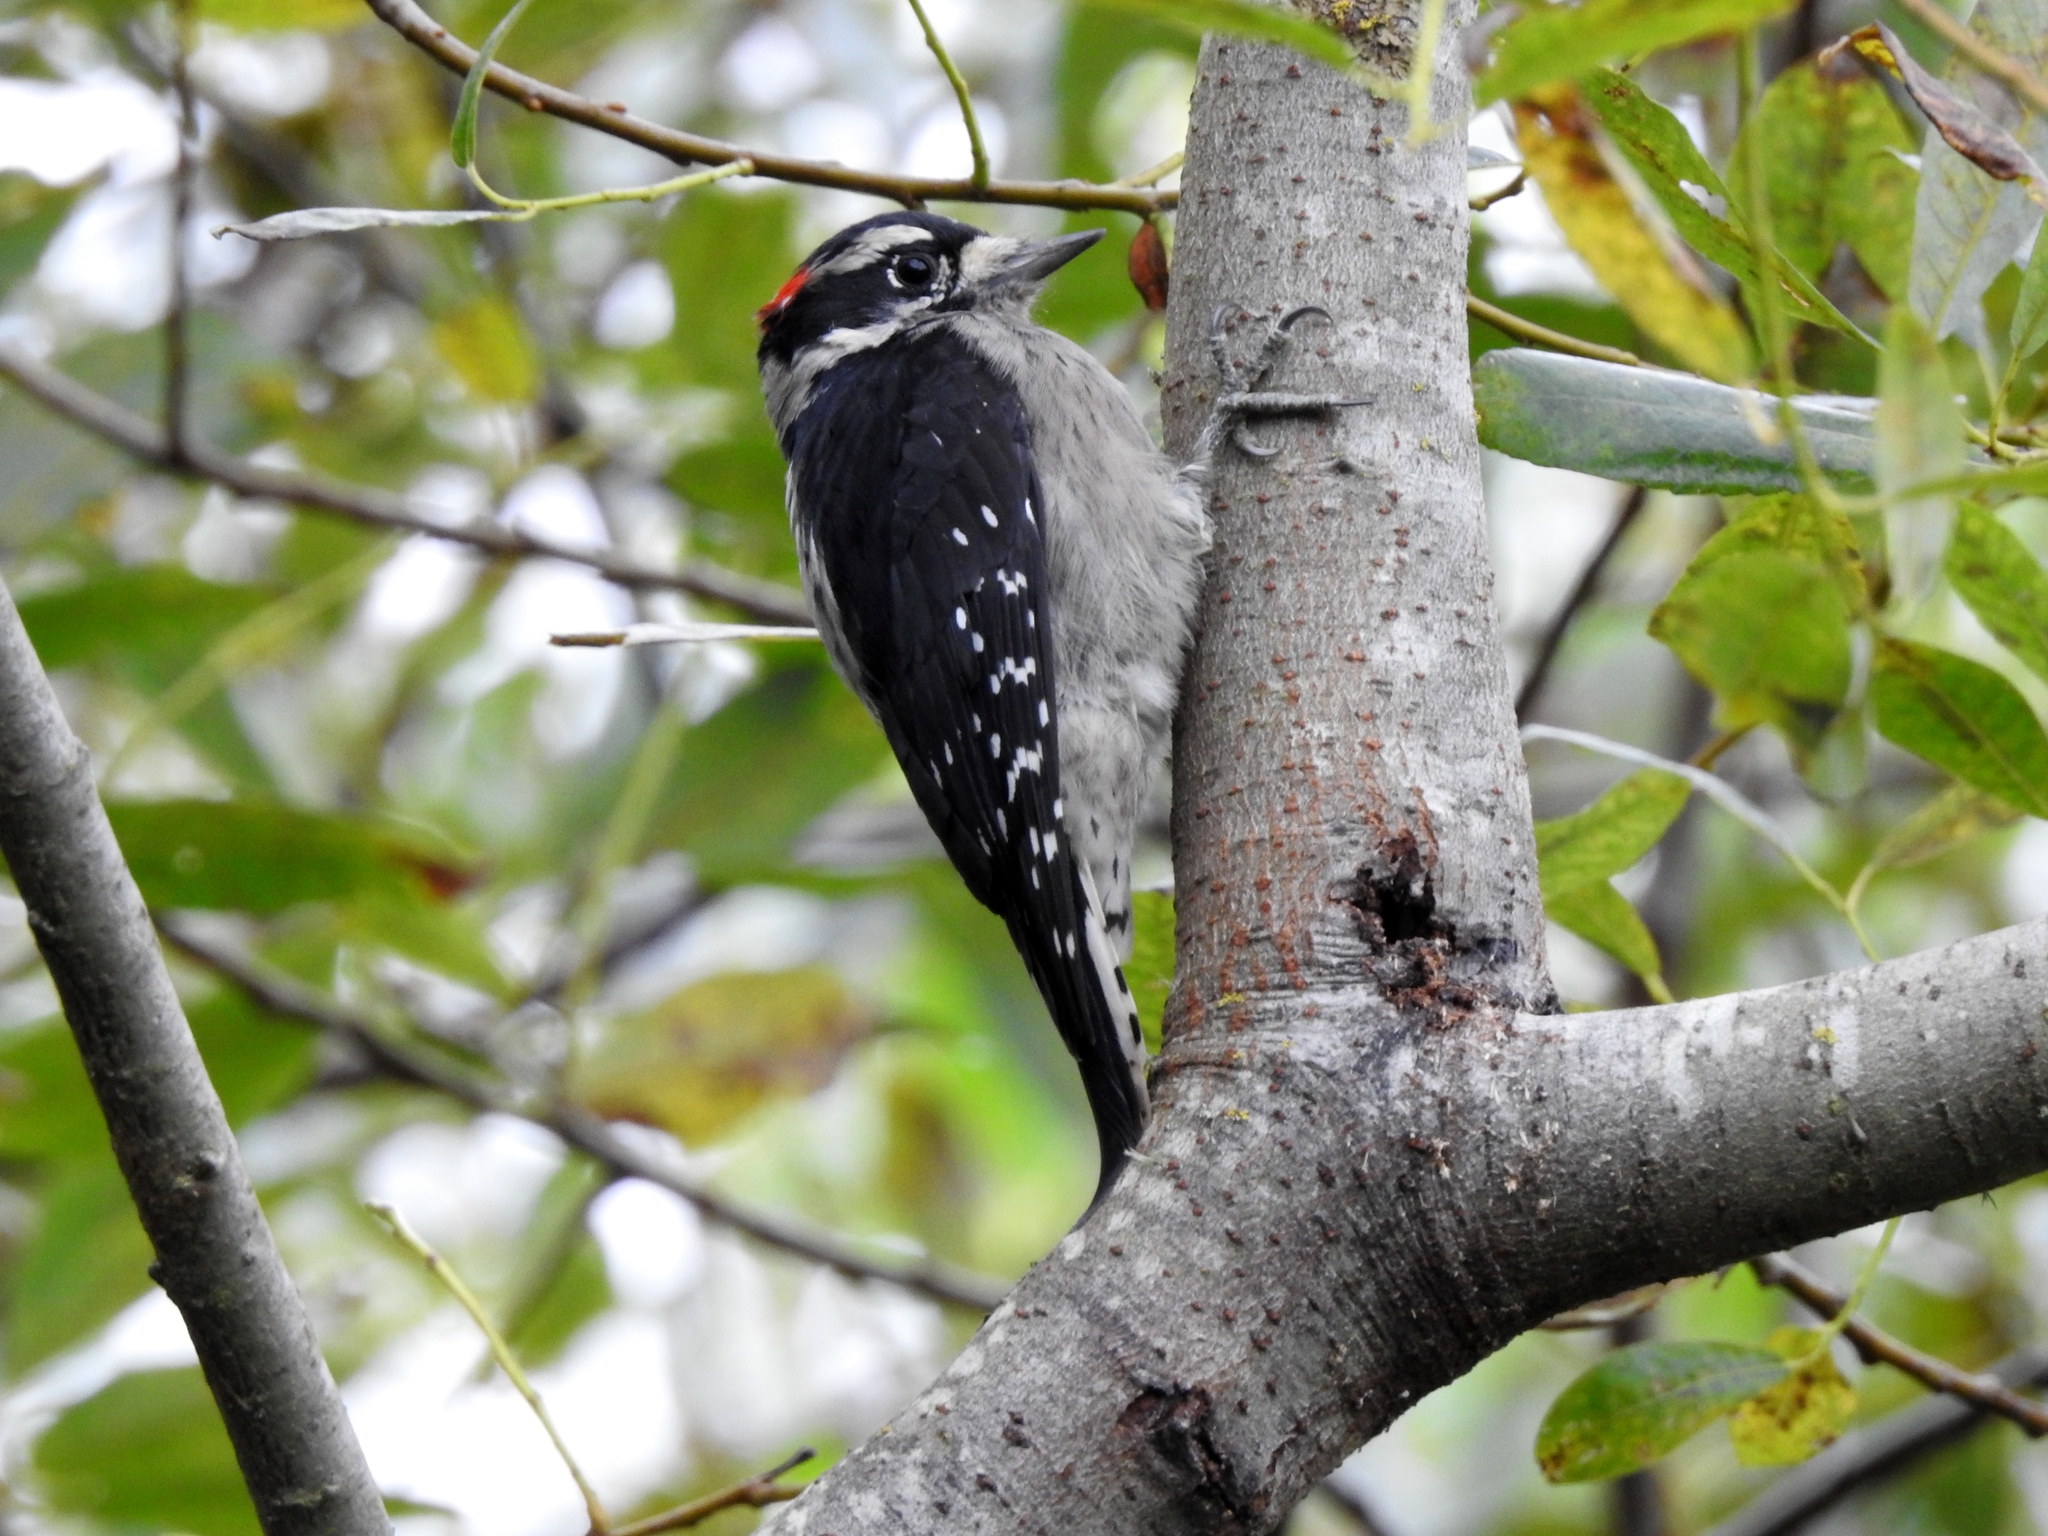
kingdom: Animalia
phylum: Chordata
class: Aves
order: Piciformes
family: Picidae
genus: Dryobates
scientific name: Dryobates pubescens
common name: Downy woodpecker
